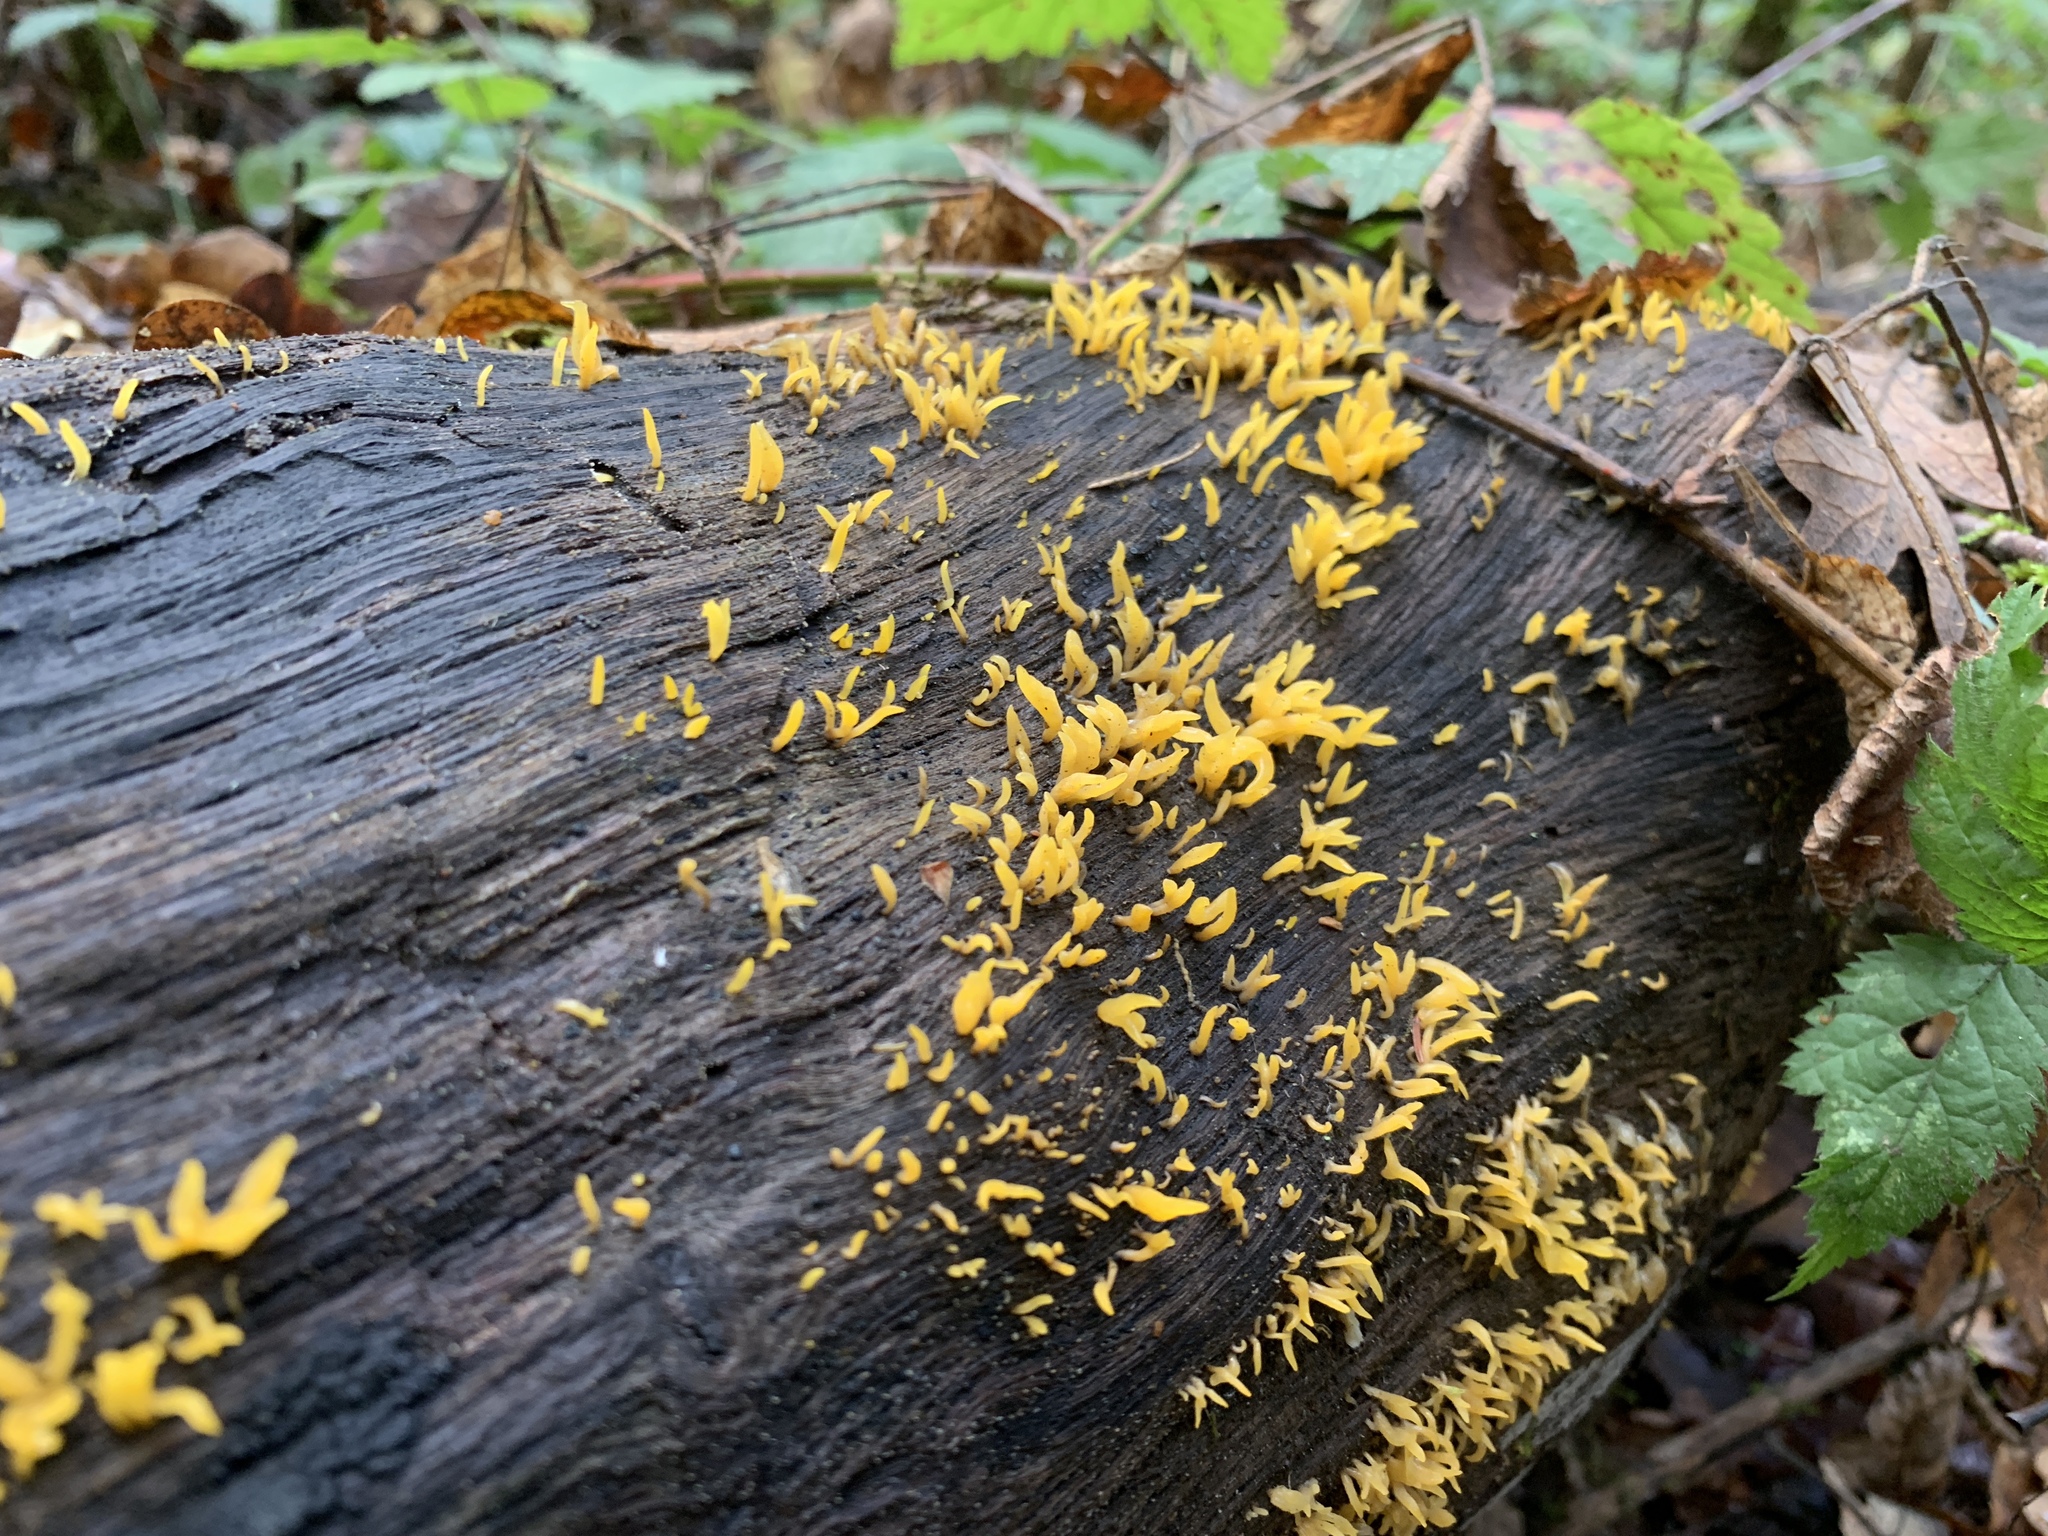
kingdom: Fungi
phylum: Basidiomycota
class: Dacrymycetes
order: Dacrymycetales
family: Dacrymycetaceae
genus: Calocera
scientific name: Calocera cornea
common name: Small stagshorn
